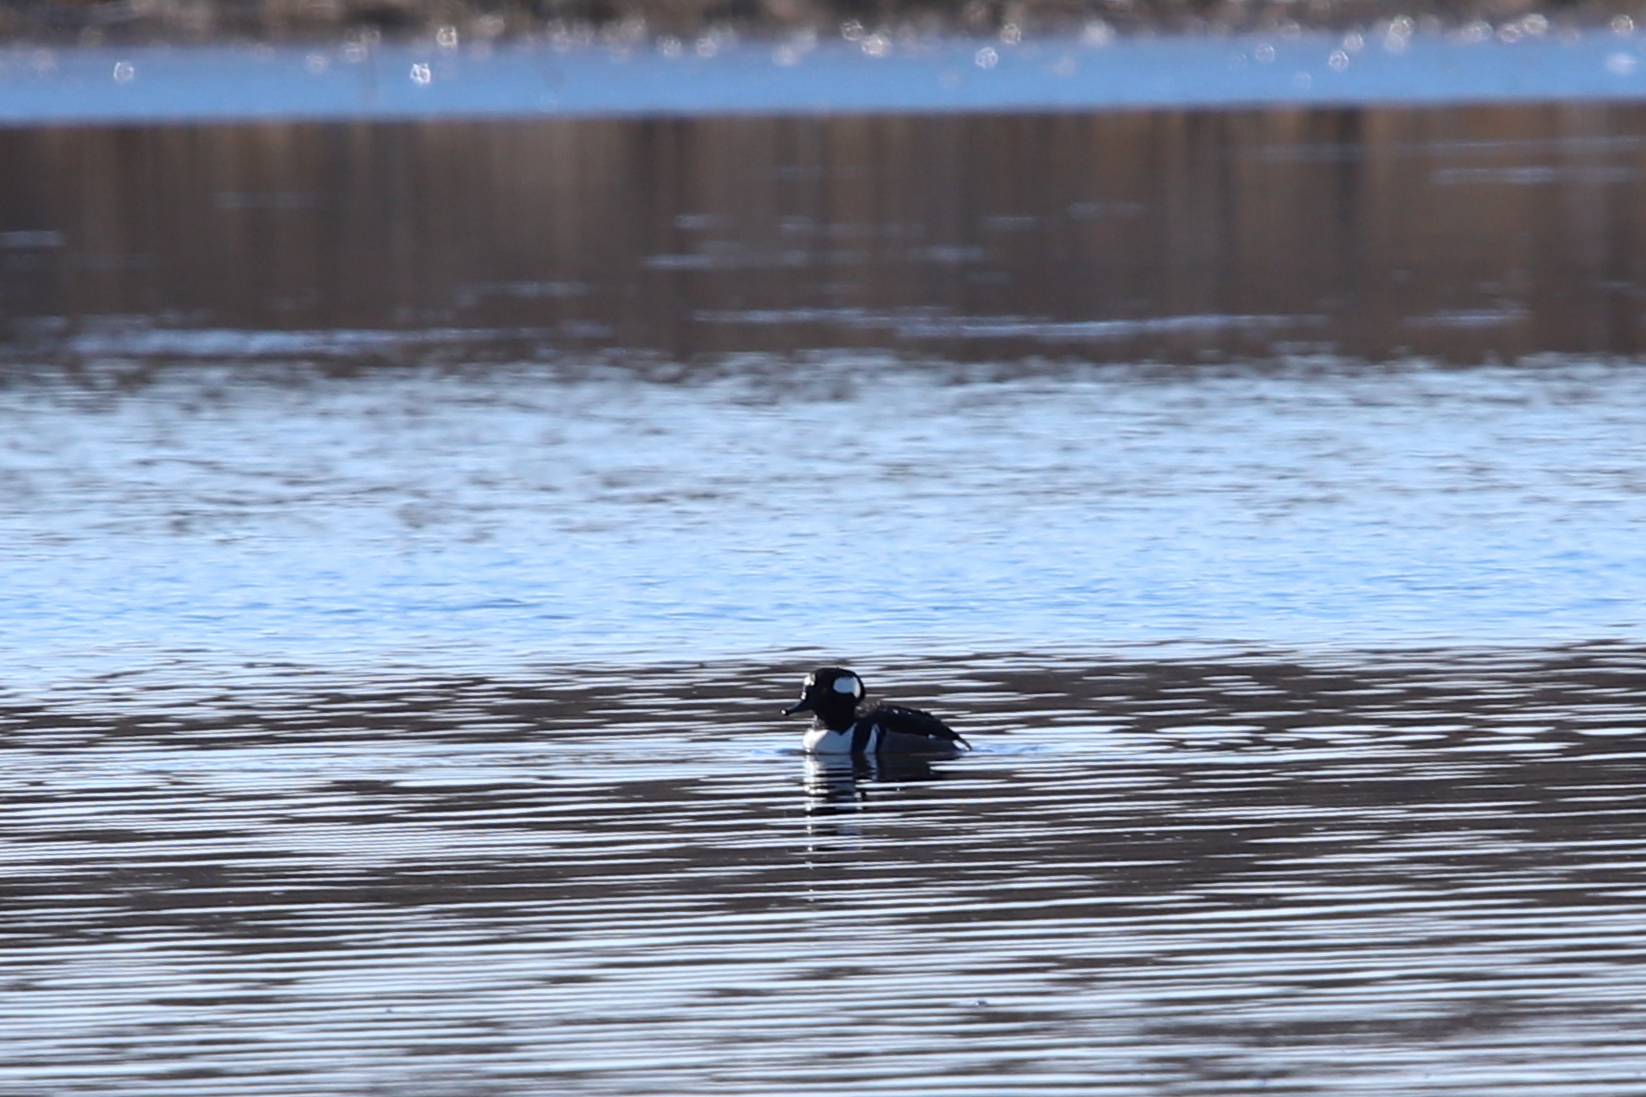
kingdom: Animalia
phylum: Chordata
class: Aves
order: Anseriformes
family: Anatidae
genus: Lophodytes
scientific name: Lophodytes cucullatus
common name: Hooded merganser
